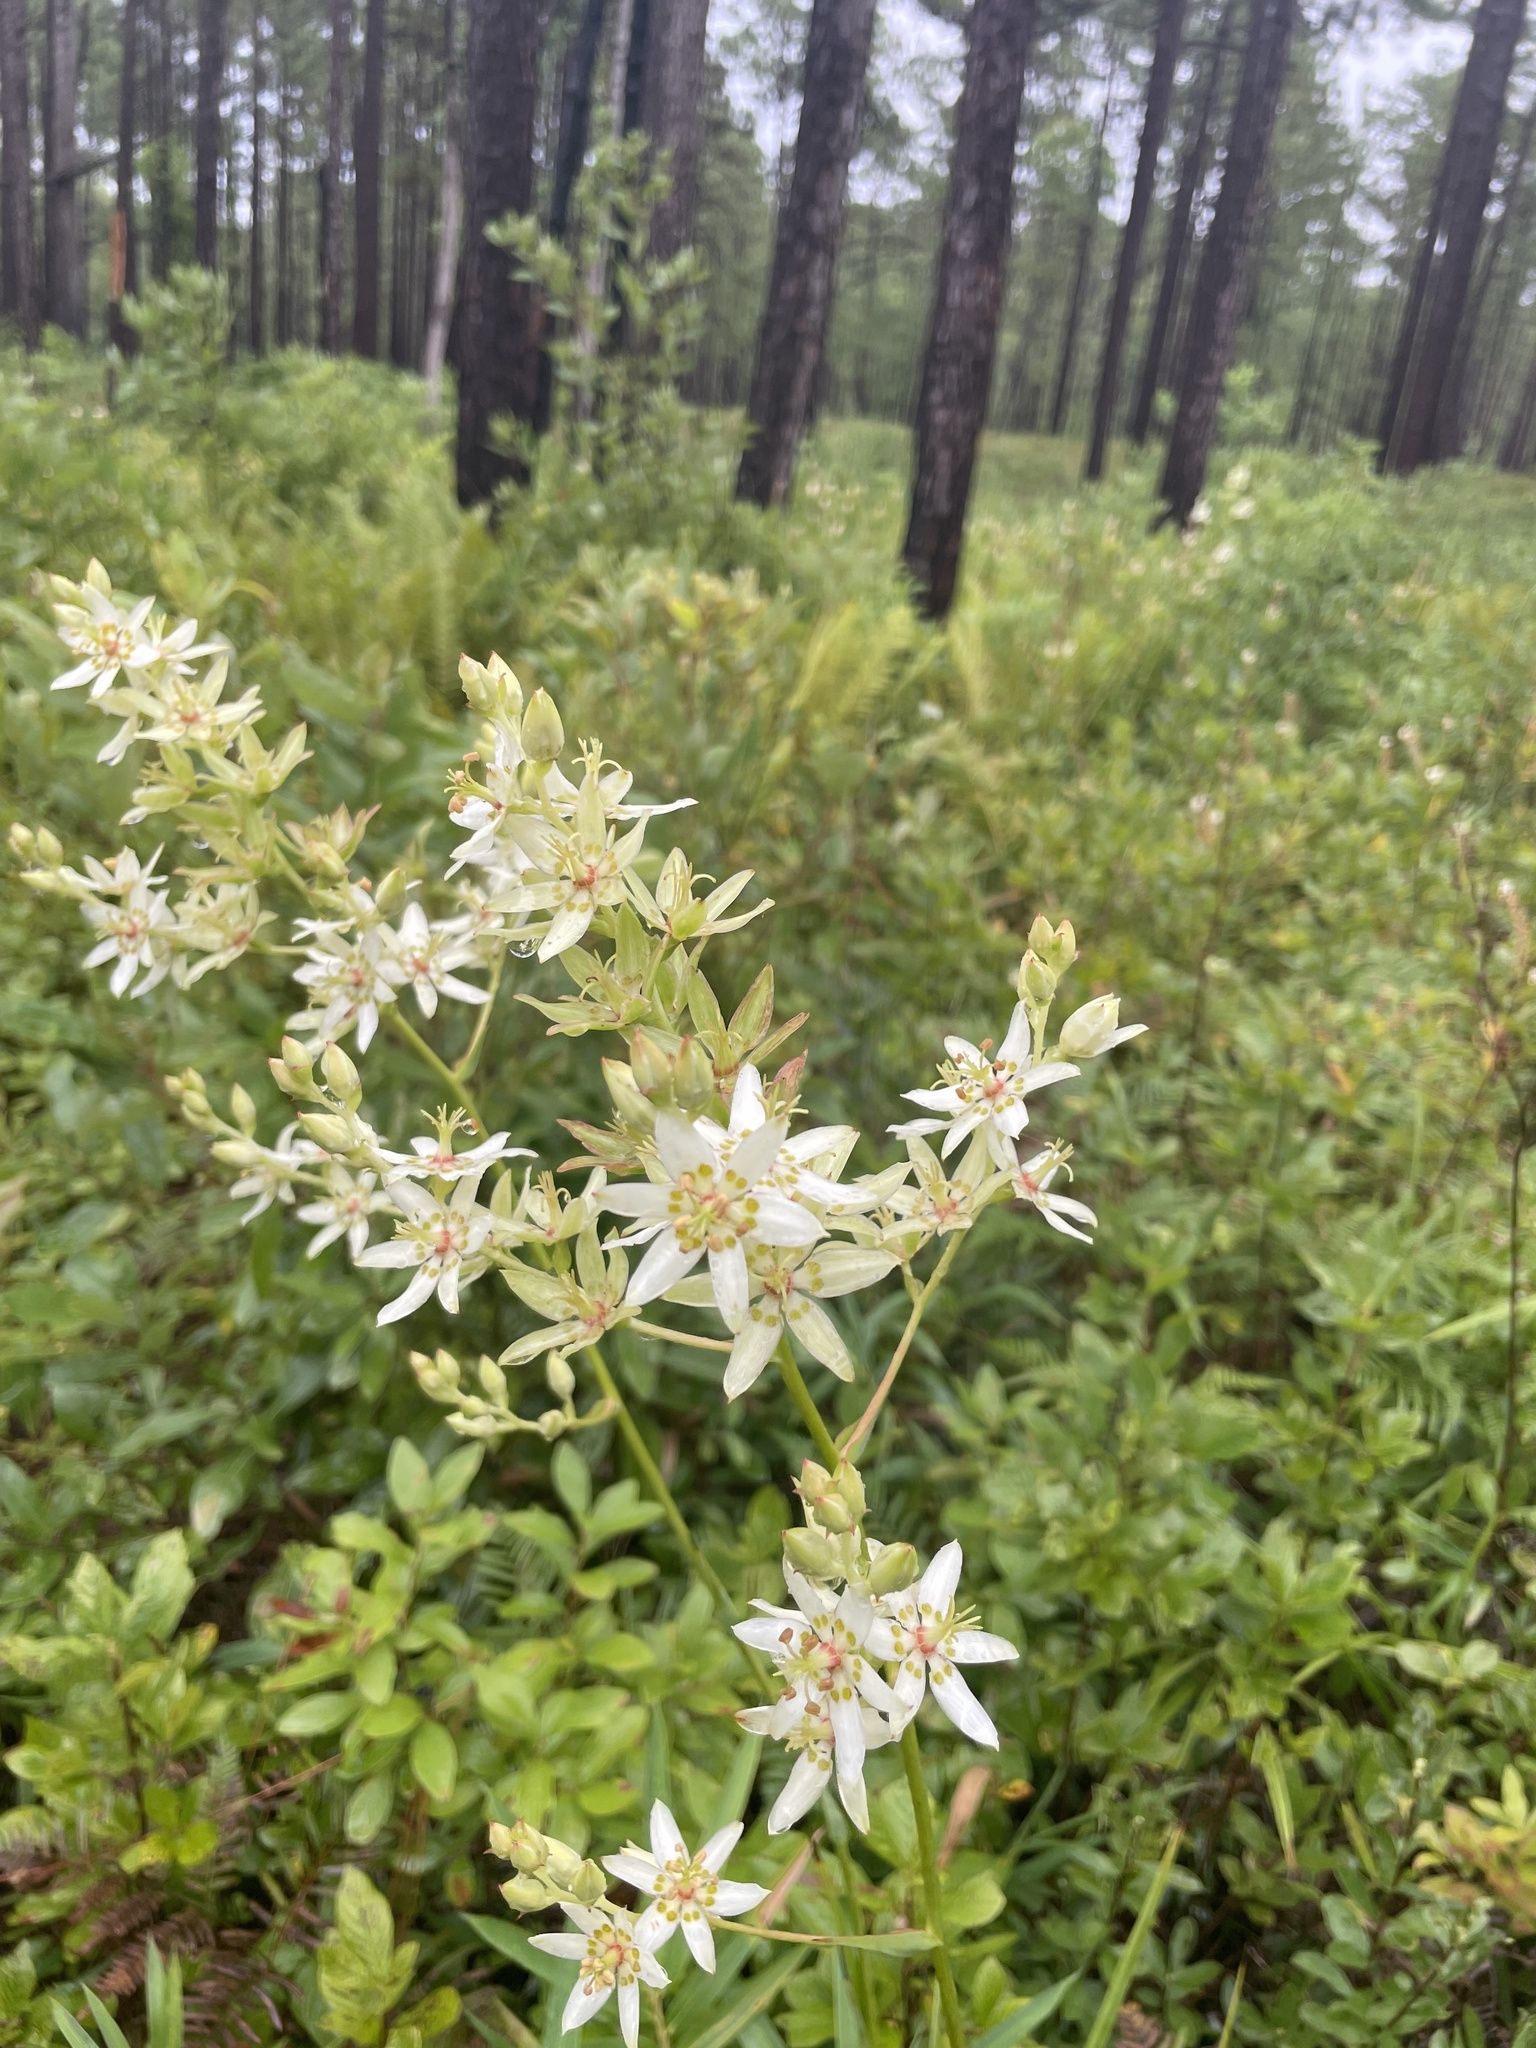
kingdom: Plantae
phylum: Tracheophyta
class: Liliopsida
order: Liliales
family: Melanthiaceae
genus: Zigadenus
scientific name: Zigadenus glaberrimus
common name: Sandbog death camas
